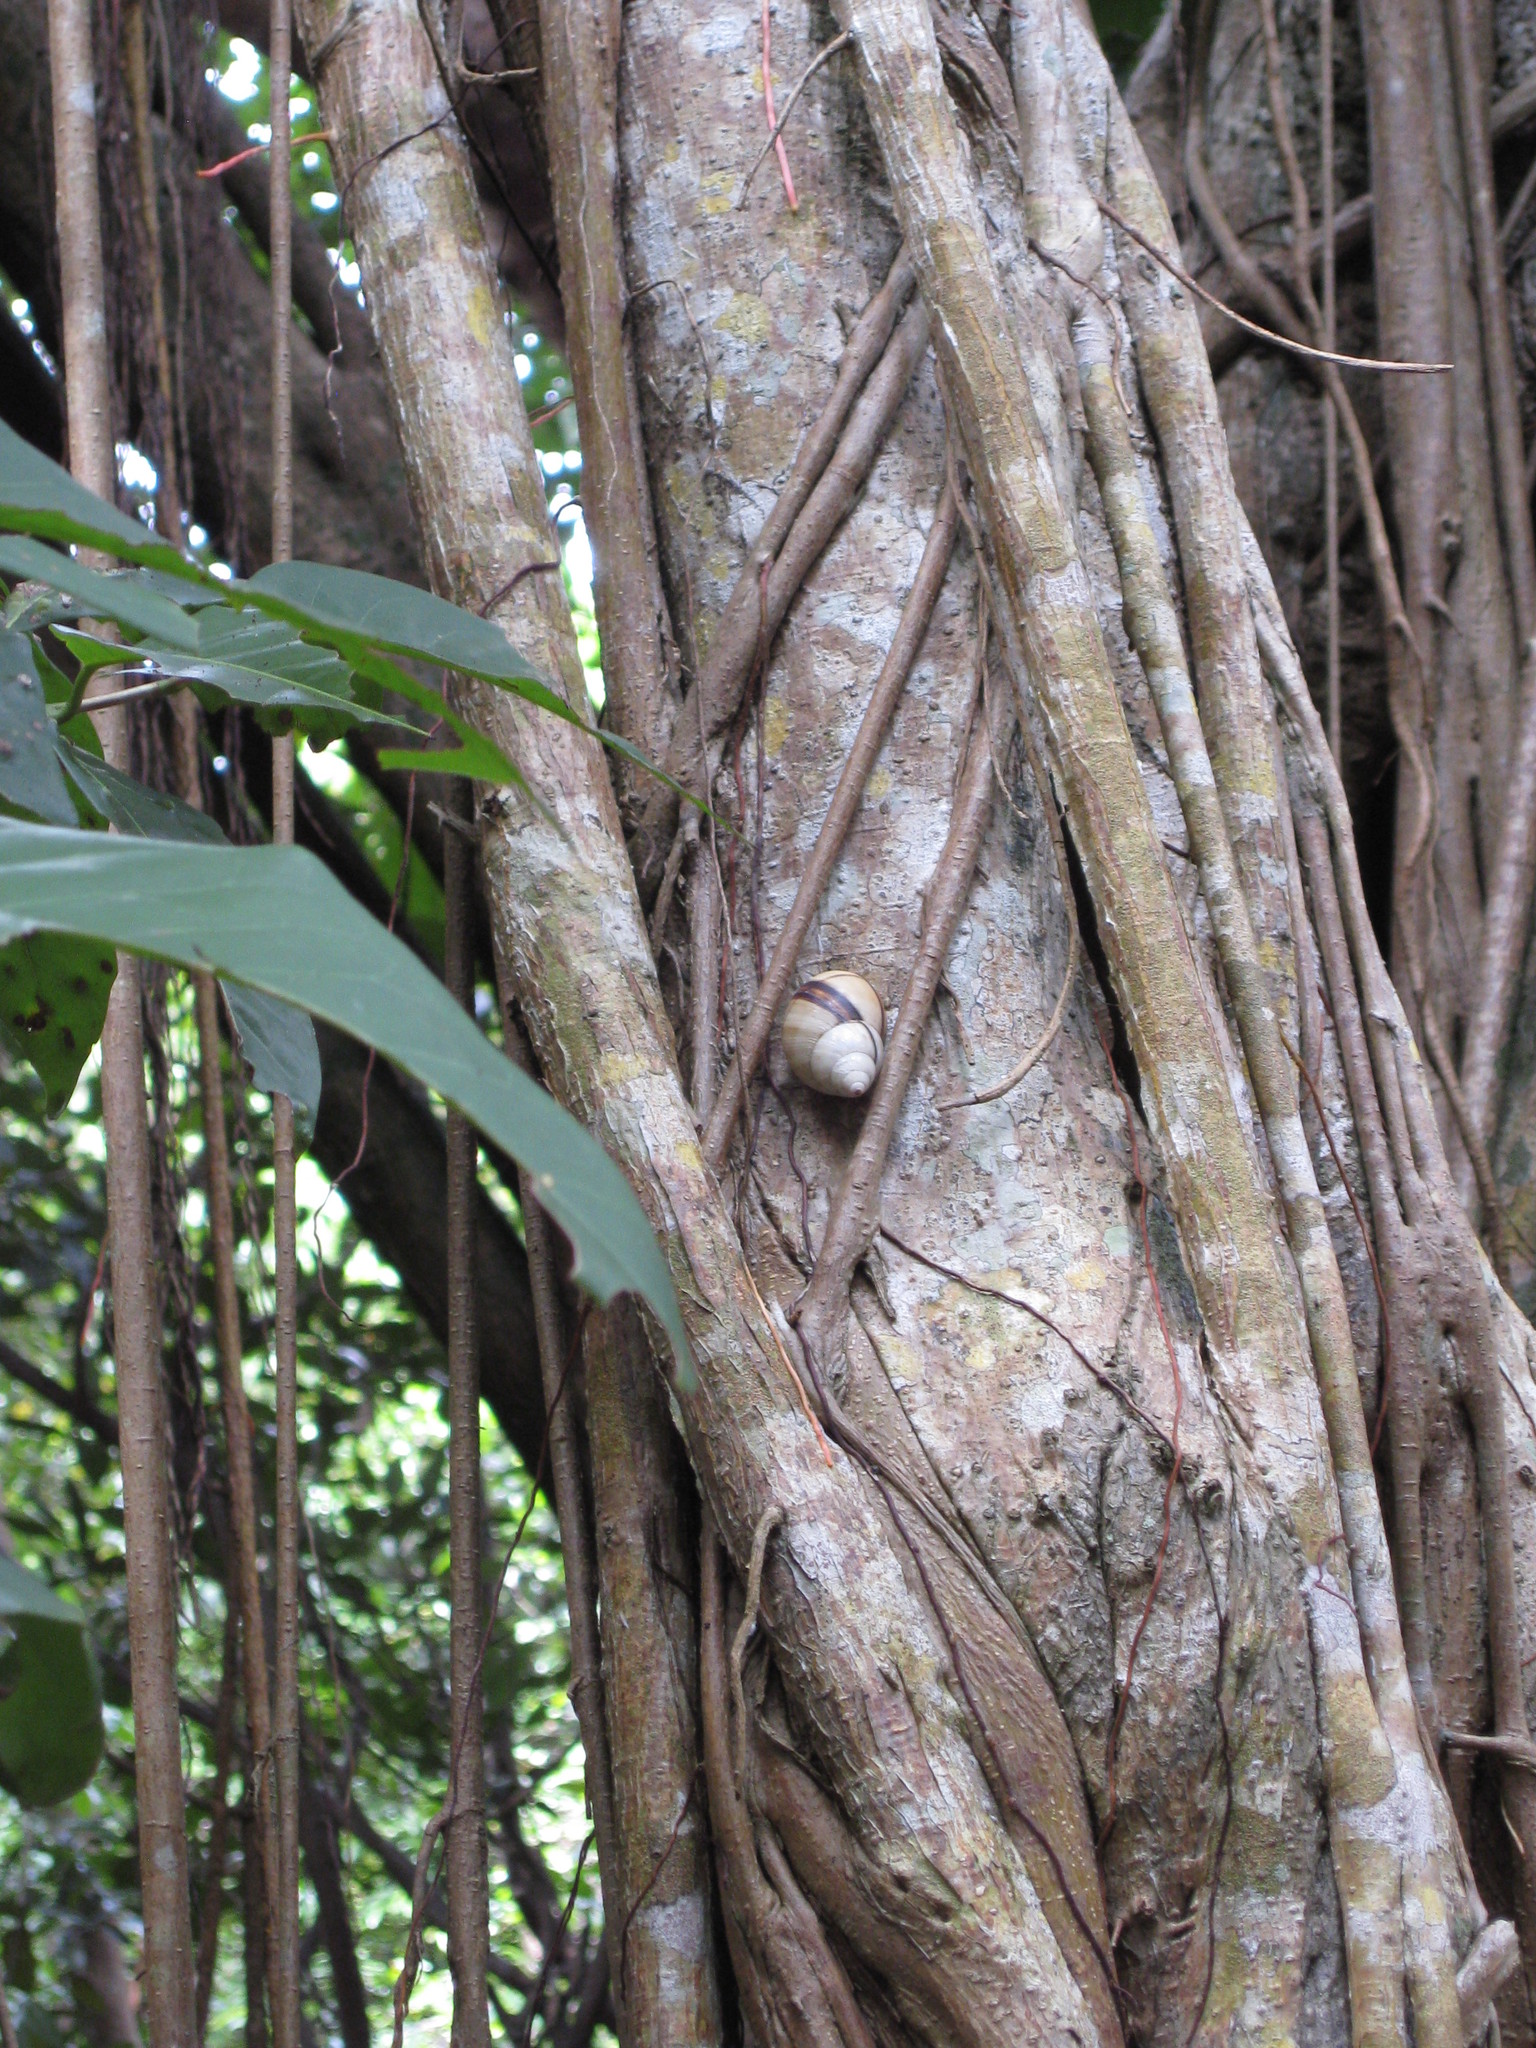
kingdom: Animalia
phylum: Mollusca
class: Gastropoda
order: Stylommatophora
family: Orthalicidae
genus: Orthalicus
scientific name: Orthalicus reses
